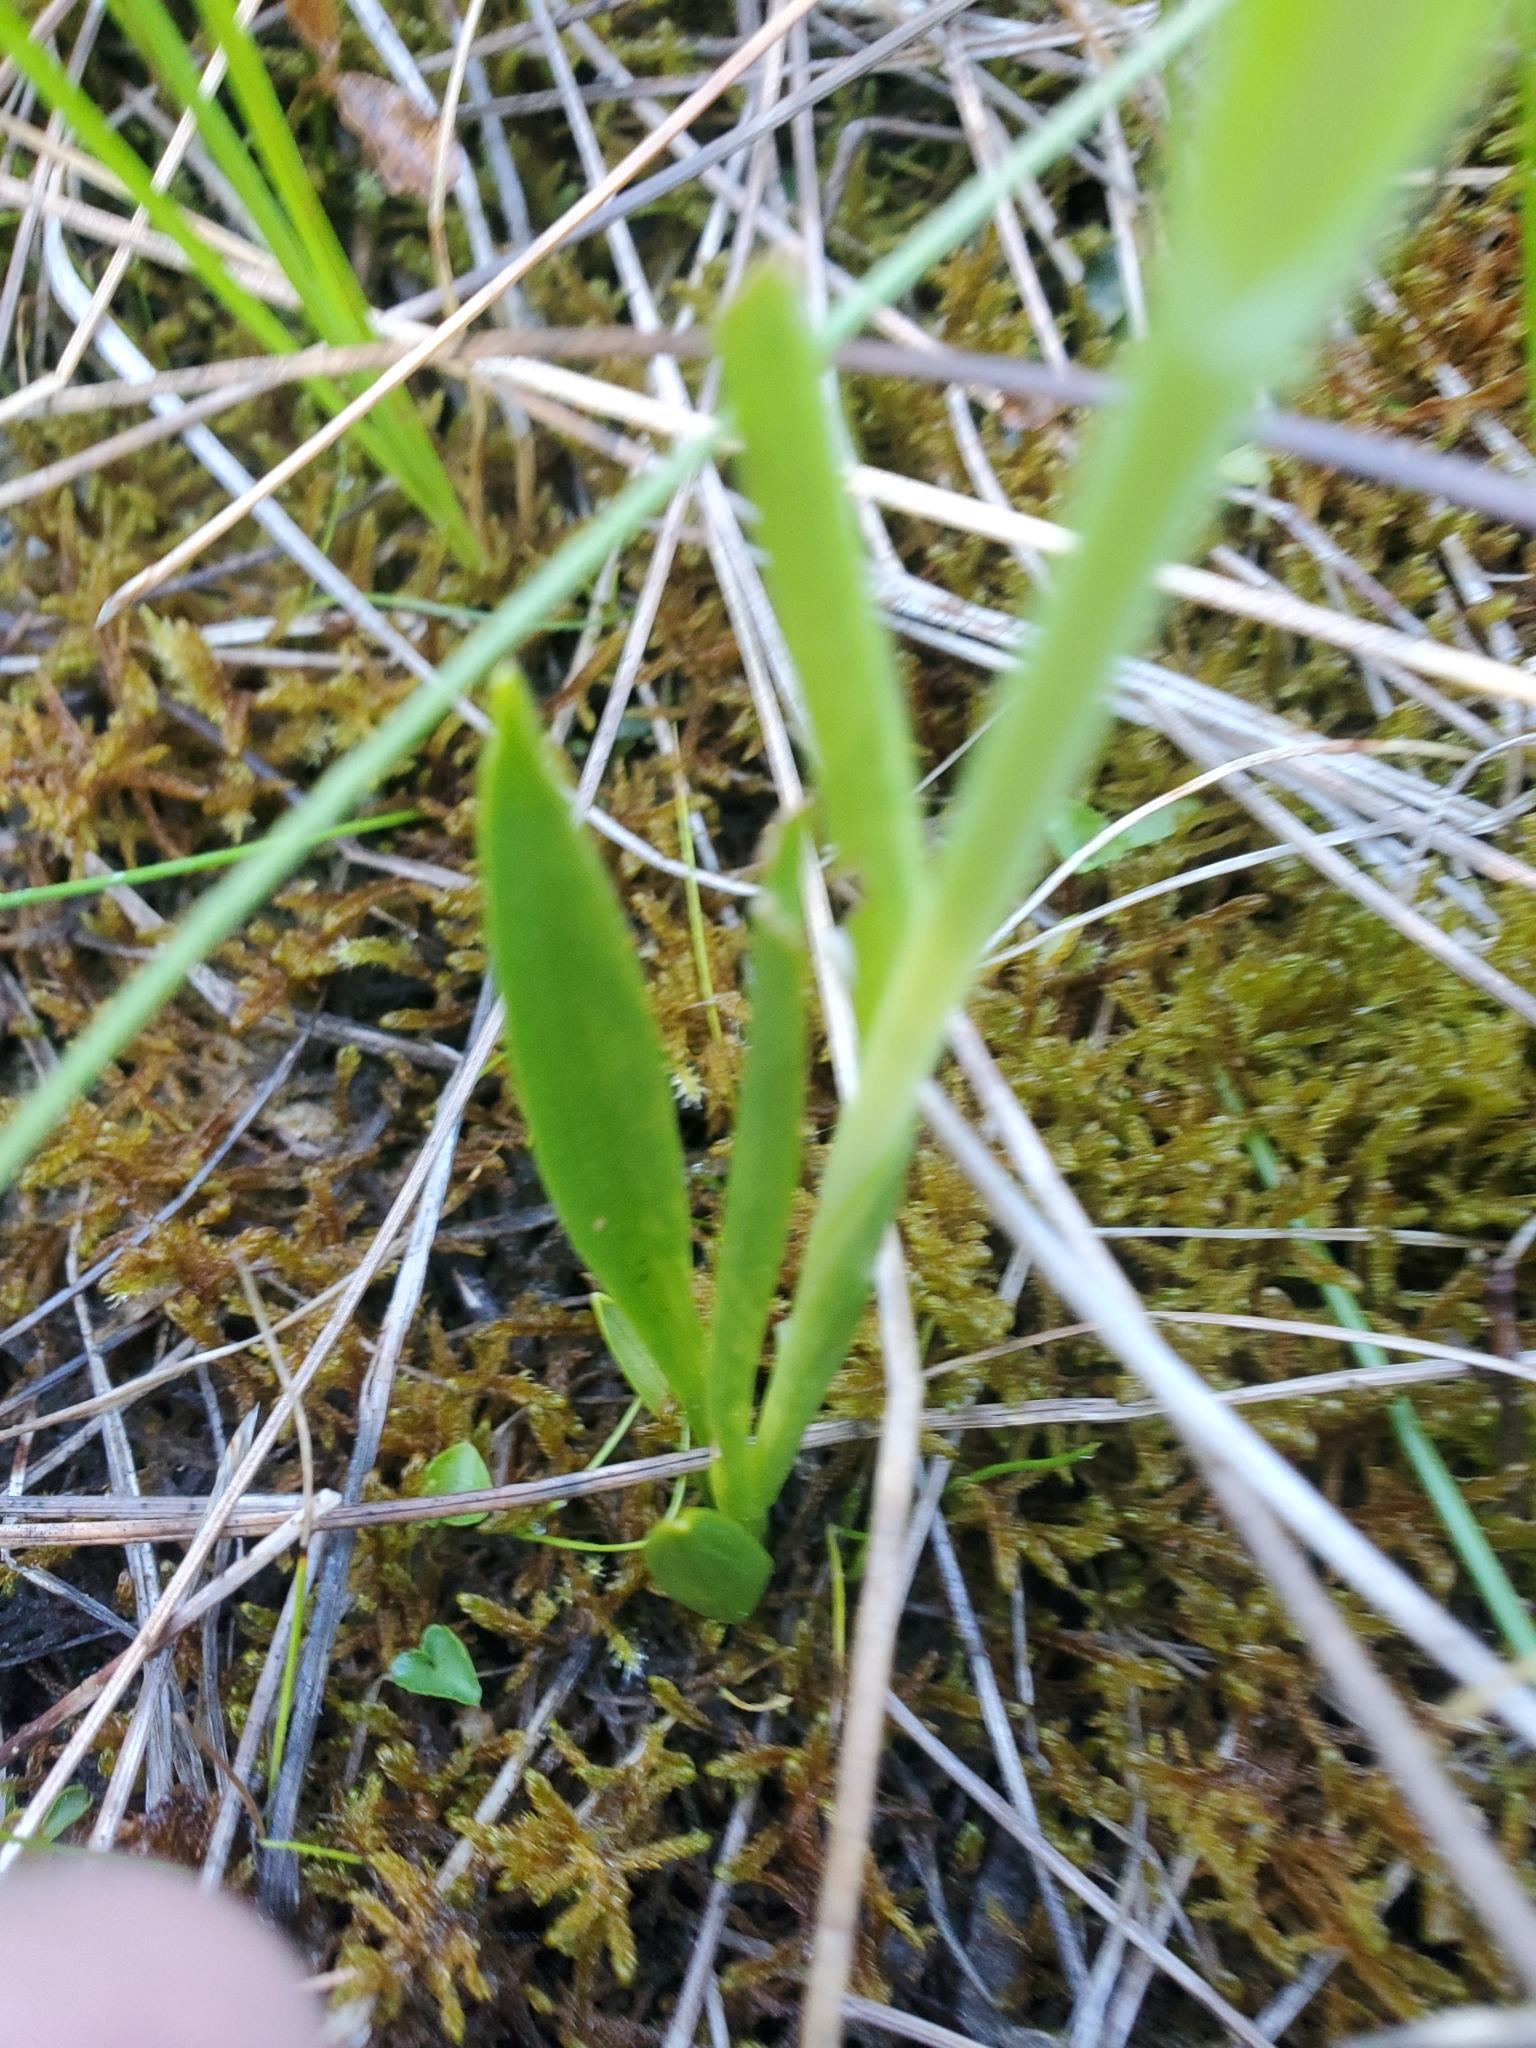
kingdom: Plantae
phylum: Tracheophyta
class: Liliopsida
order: Asparagales
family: Orchidaceae
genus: Spiranthes
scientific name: Spiranthes romanzoffiana
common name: Irish lady's-tresses
